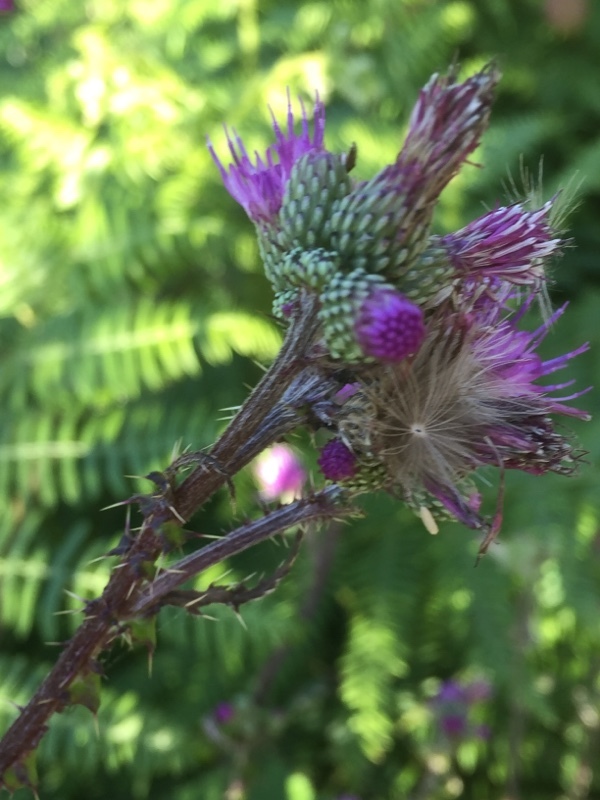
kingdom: Plantae
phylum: Tracheophyta
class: Magnoliopsida
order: Asterales
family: Asteraceae
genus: Cirsium
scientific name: Cirsium palustre
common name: Marsh thistle
